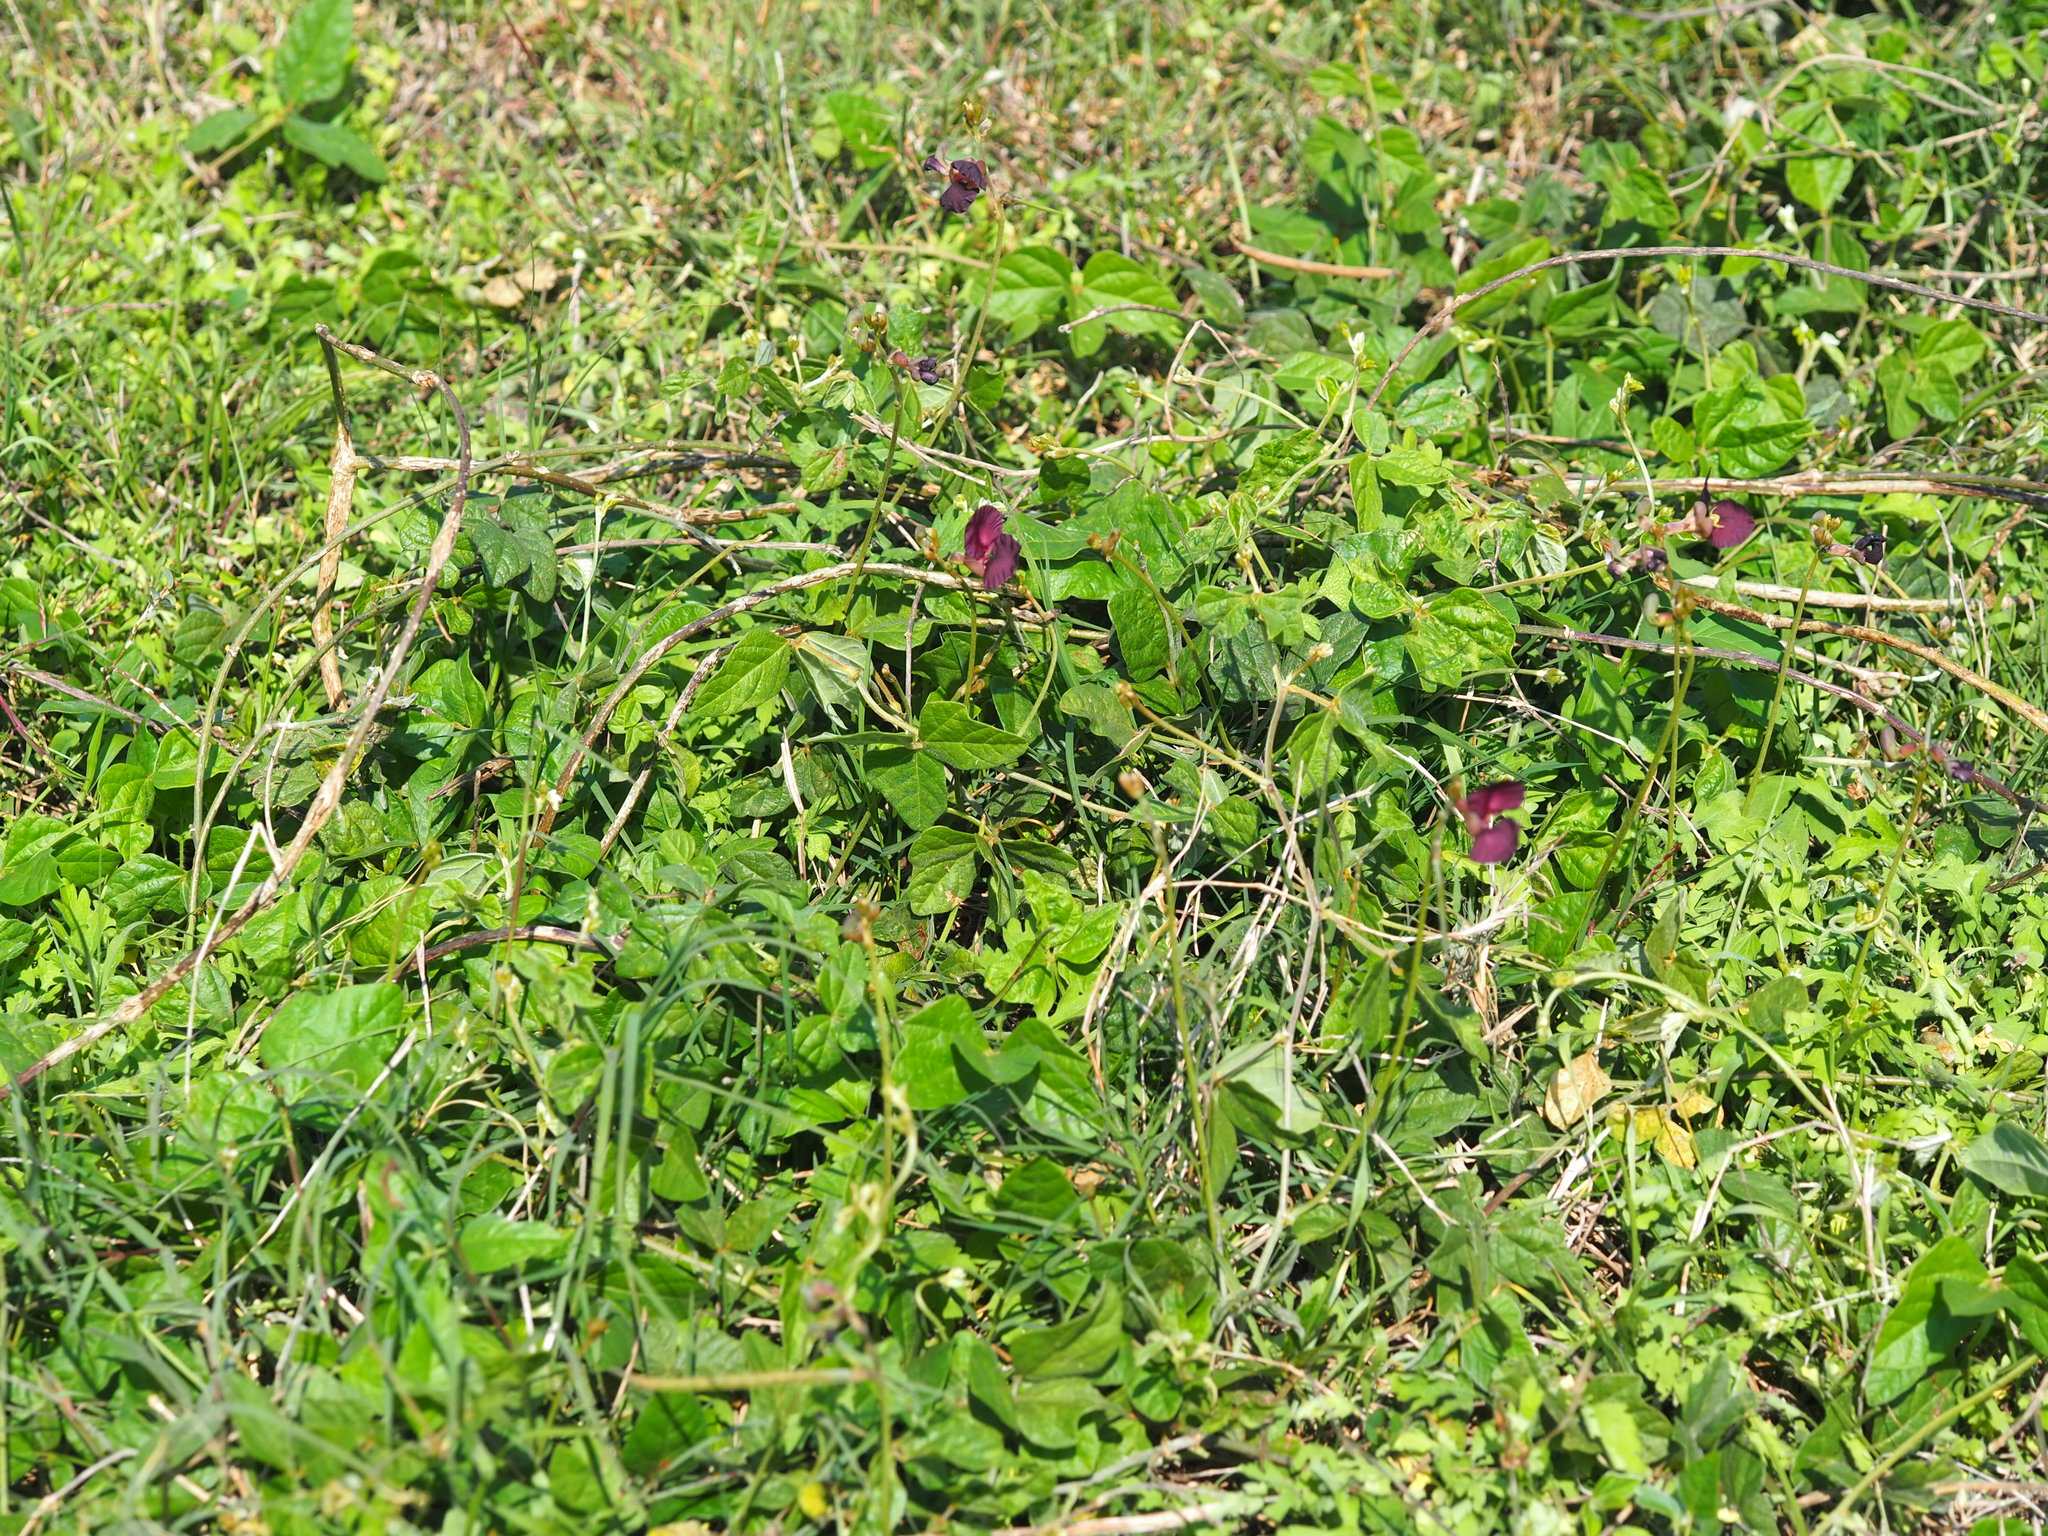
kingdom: Plantae
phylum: Tracheophyta
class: Magnoliopsida
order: Fabales
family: Fabaceae
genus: Macroptilium
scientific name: Macroptilium atropurpureum
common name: Purple bushbean
